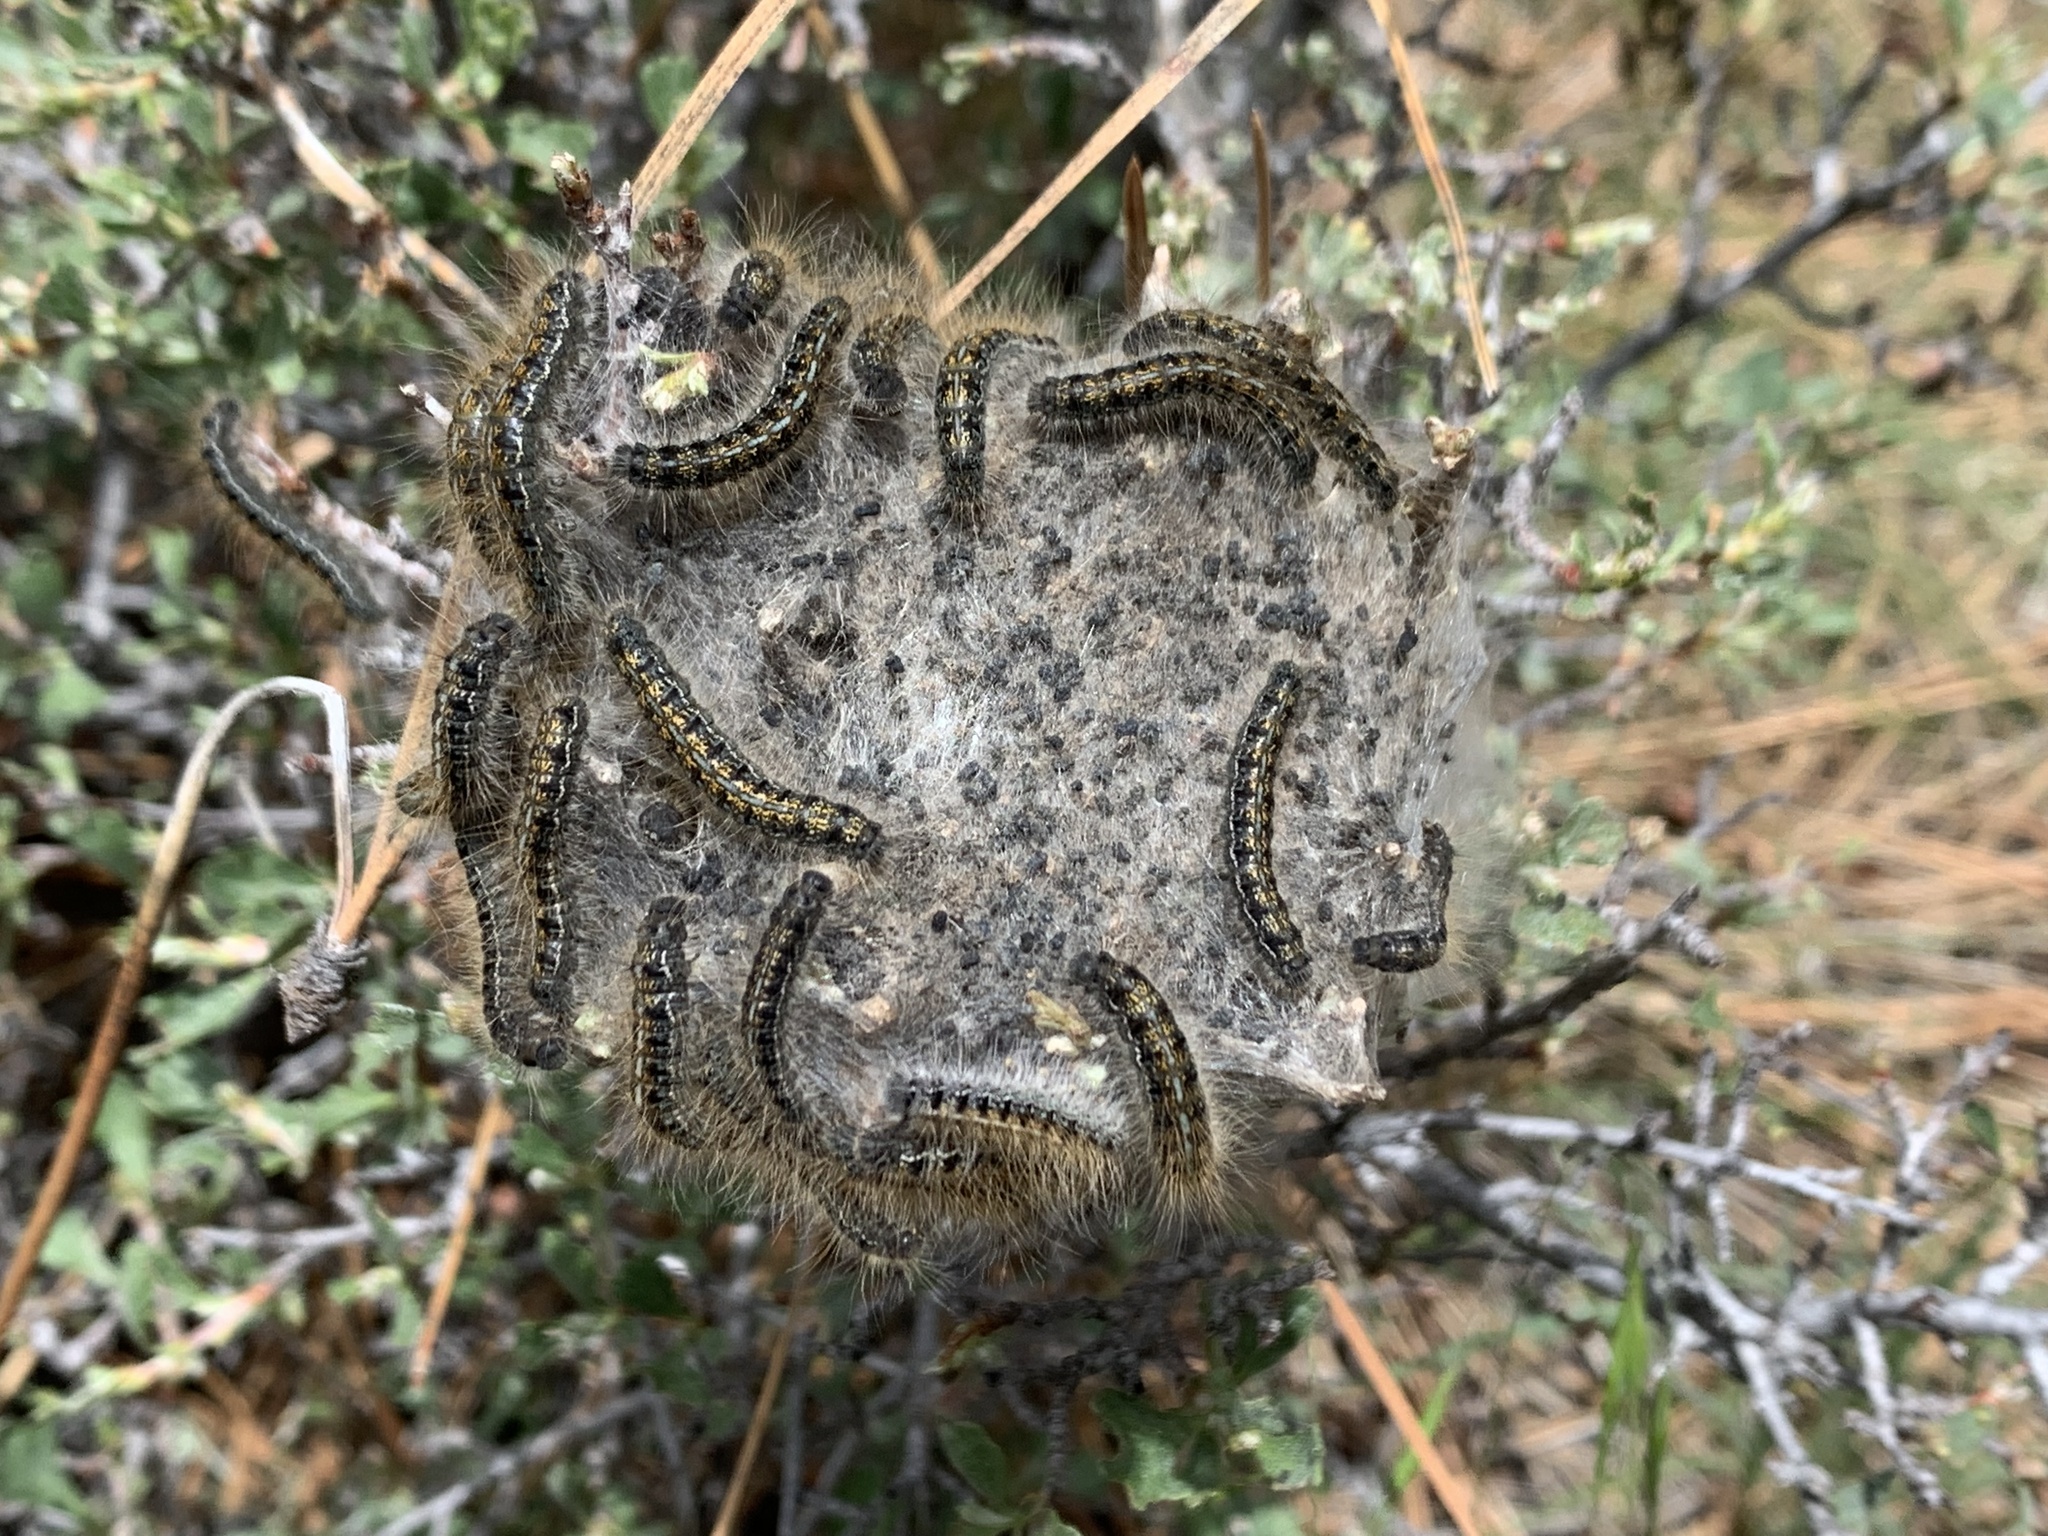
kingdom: Animalia
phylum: Arthropoda
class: Insecta
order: Lepidoptera
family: Lasiocampidae
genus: Malacosoma
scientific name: Malacosoma californica
